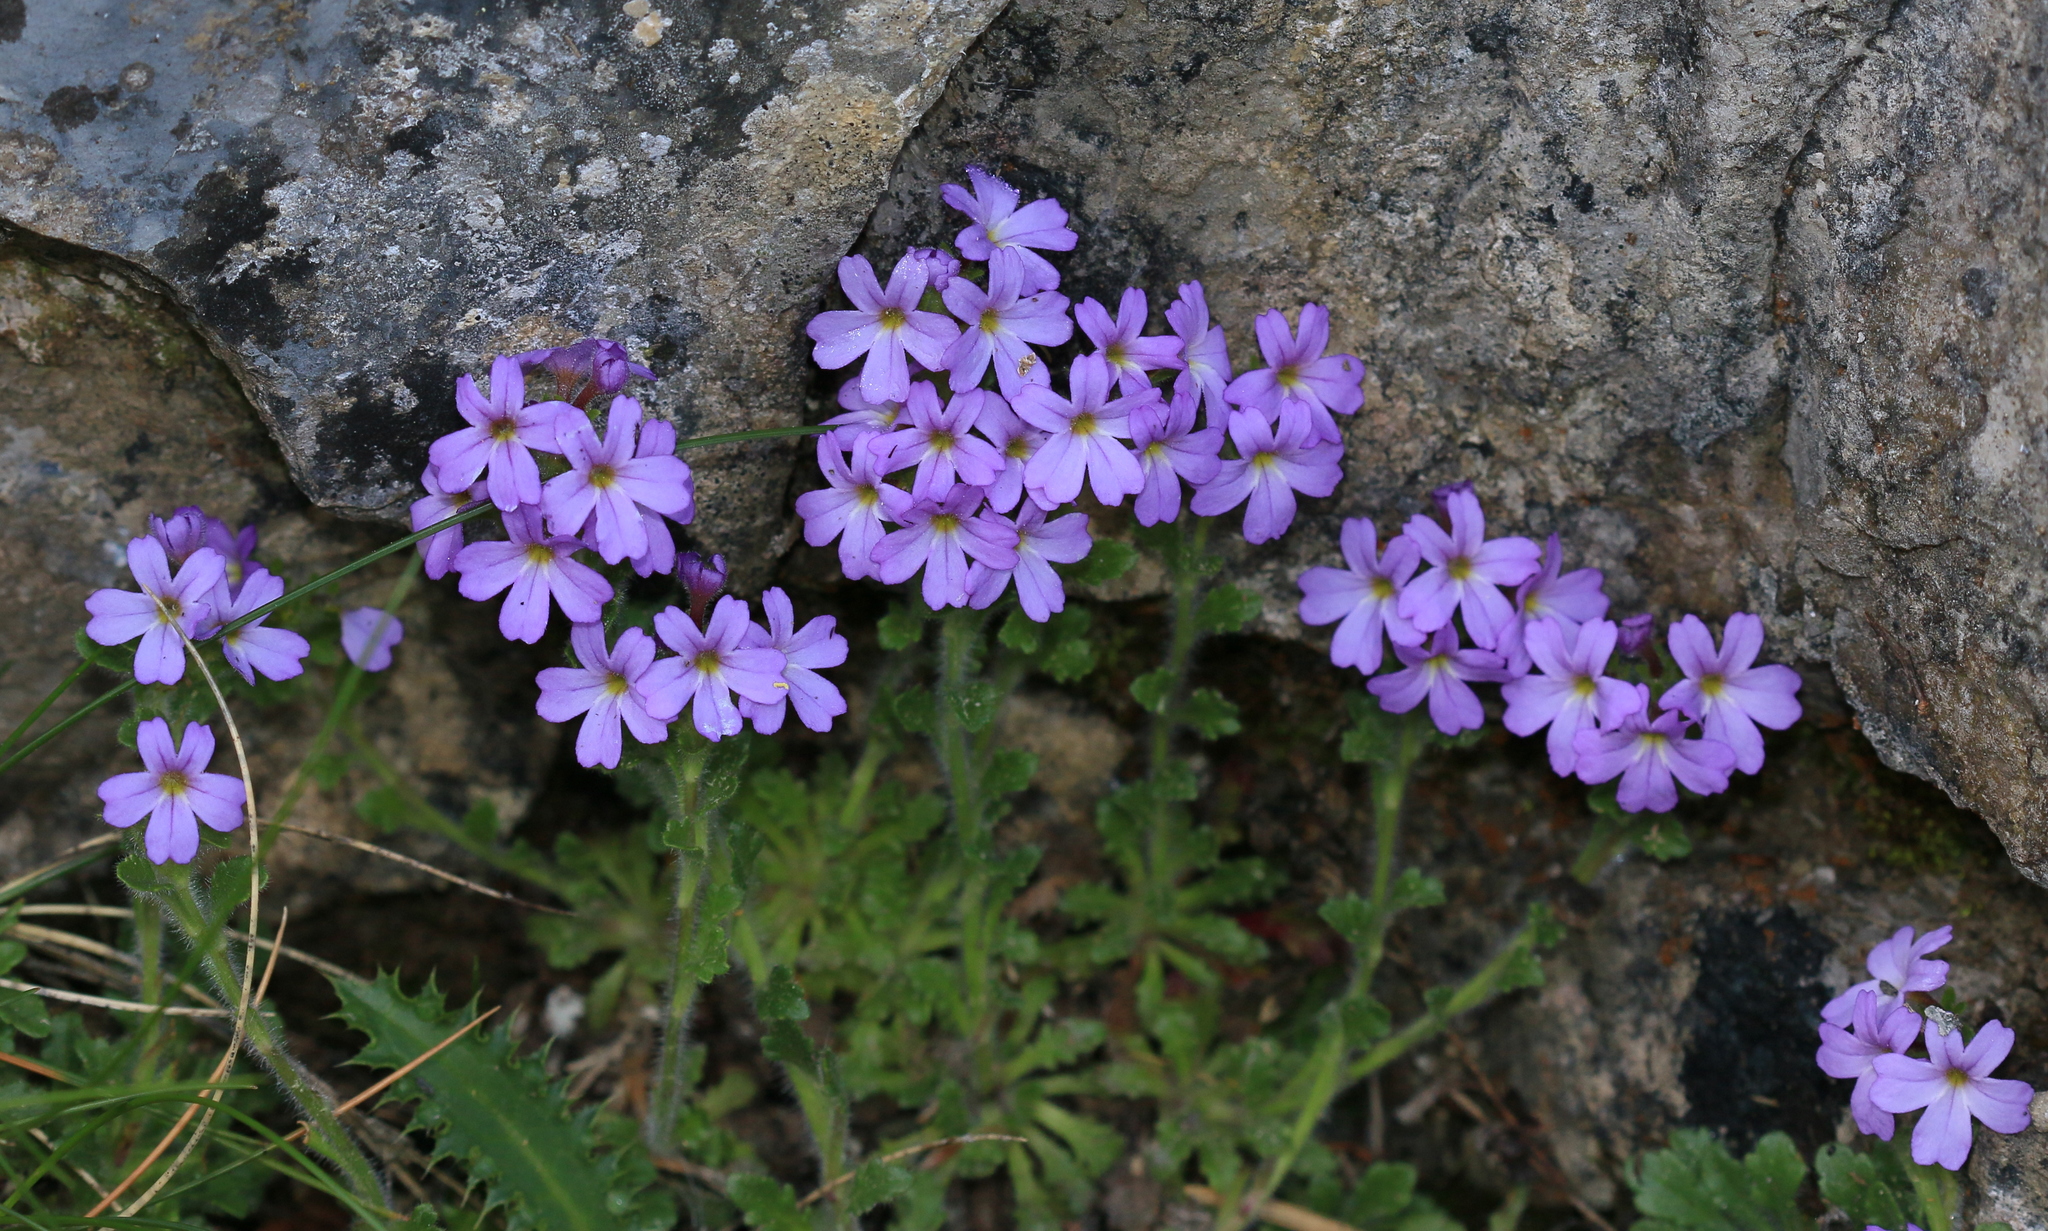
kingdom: Plantae
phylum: Tracheophyta
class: Magnoliopsida
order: Lamiales
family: Plantaginaceae
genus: Erinus
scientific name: Erinus alpinus
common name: Fairy foxglove
